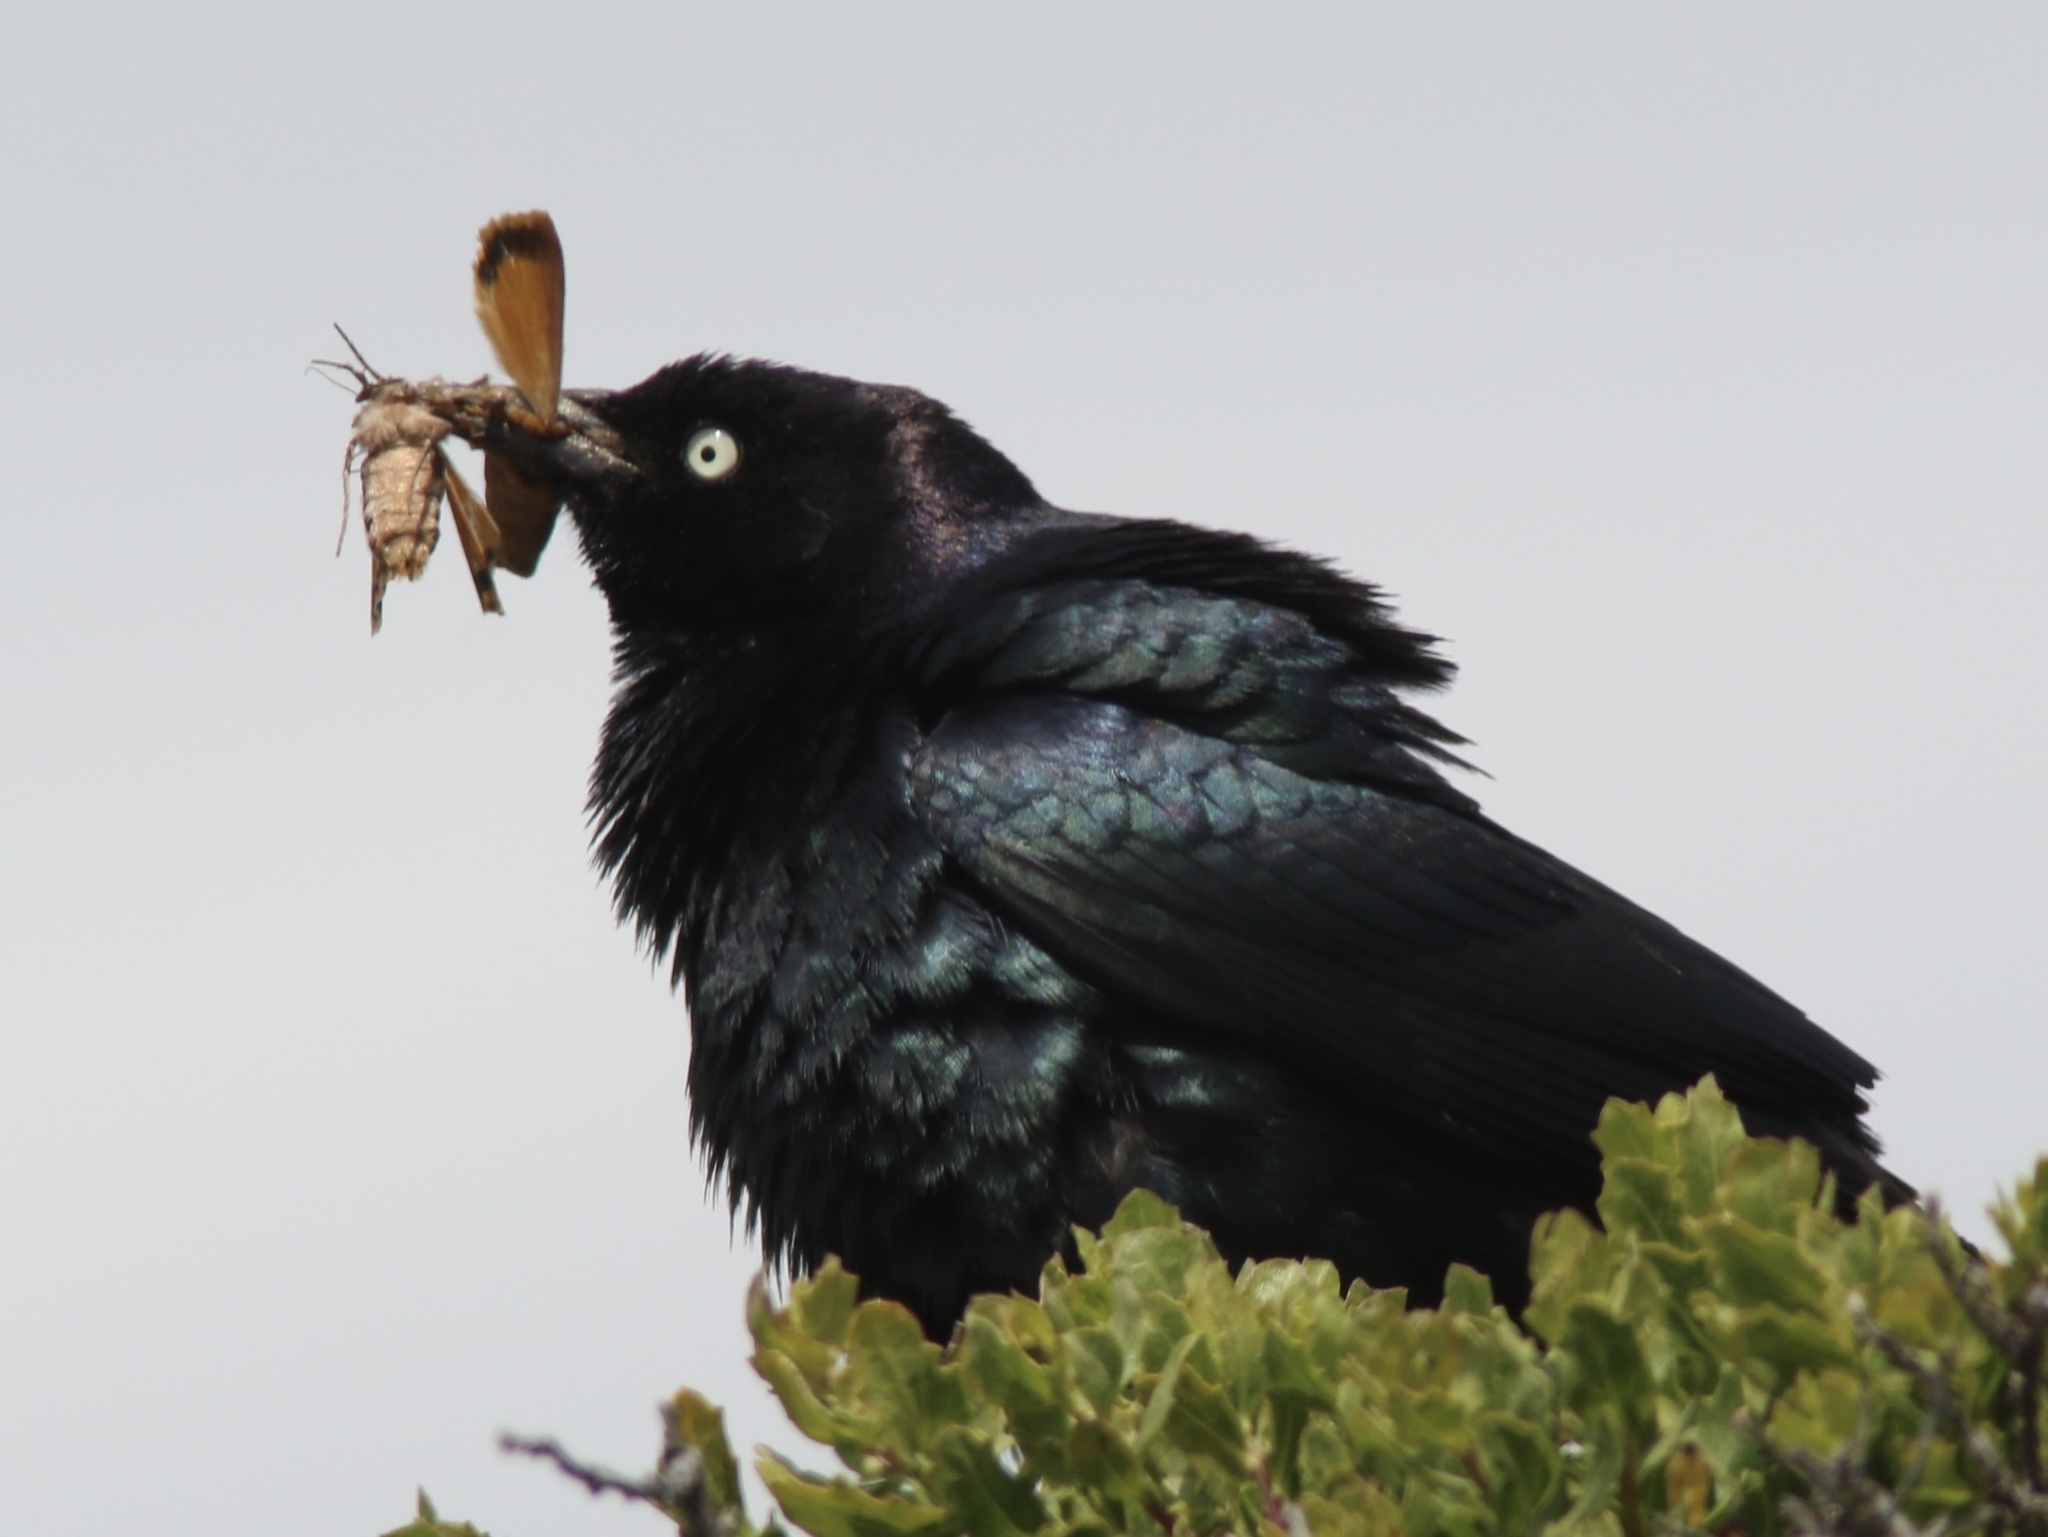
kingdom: Animalia
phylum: Chordata
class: Aves
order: Passeriformes
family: Icteridae
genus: Euphagus
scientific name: Euphagus cyanocephalus
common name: Brewer's blackbird
